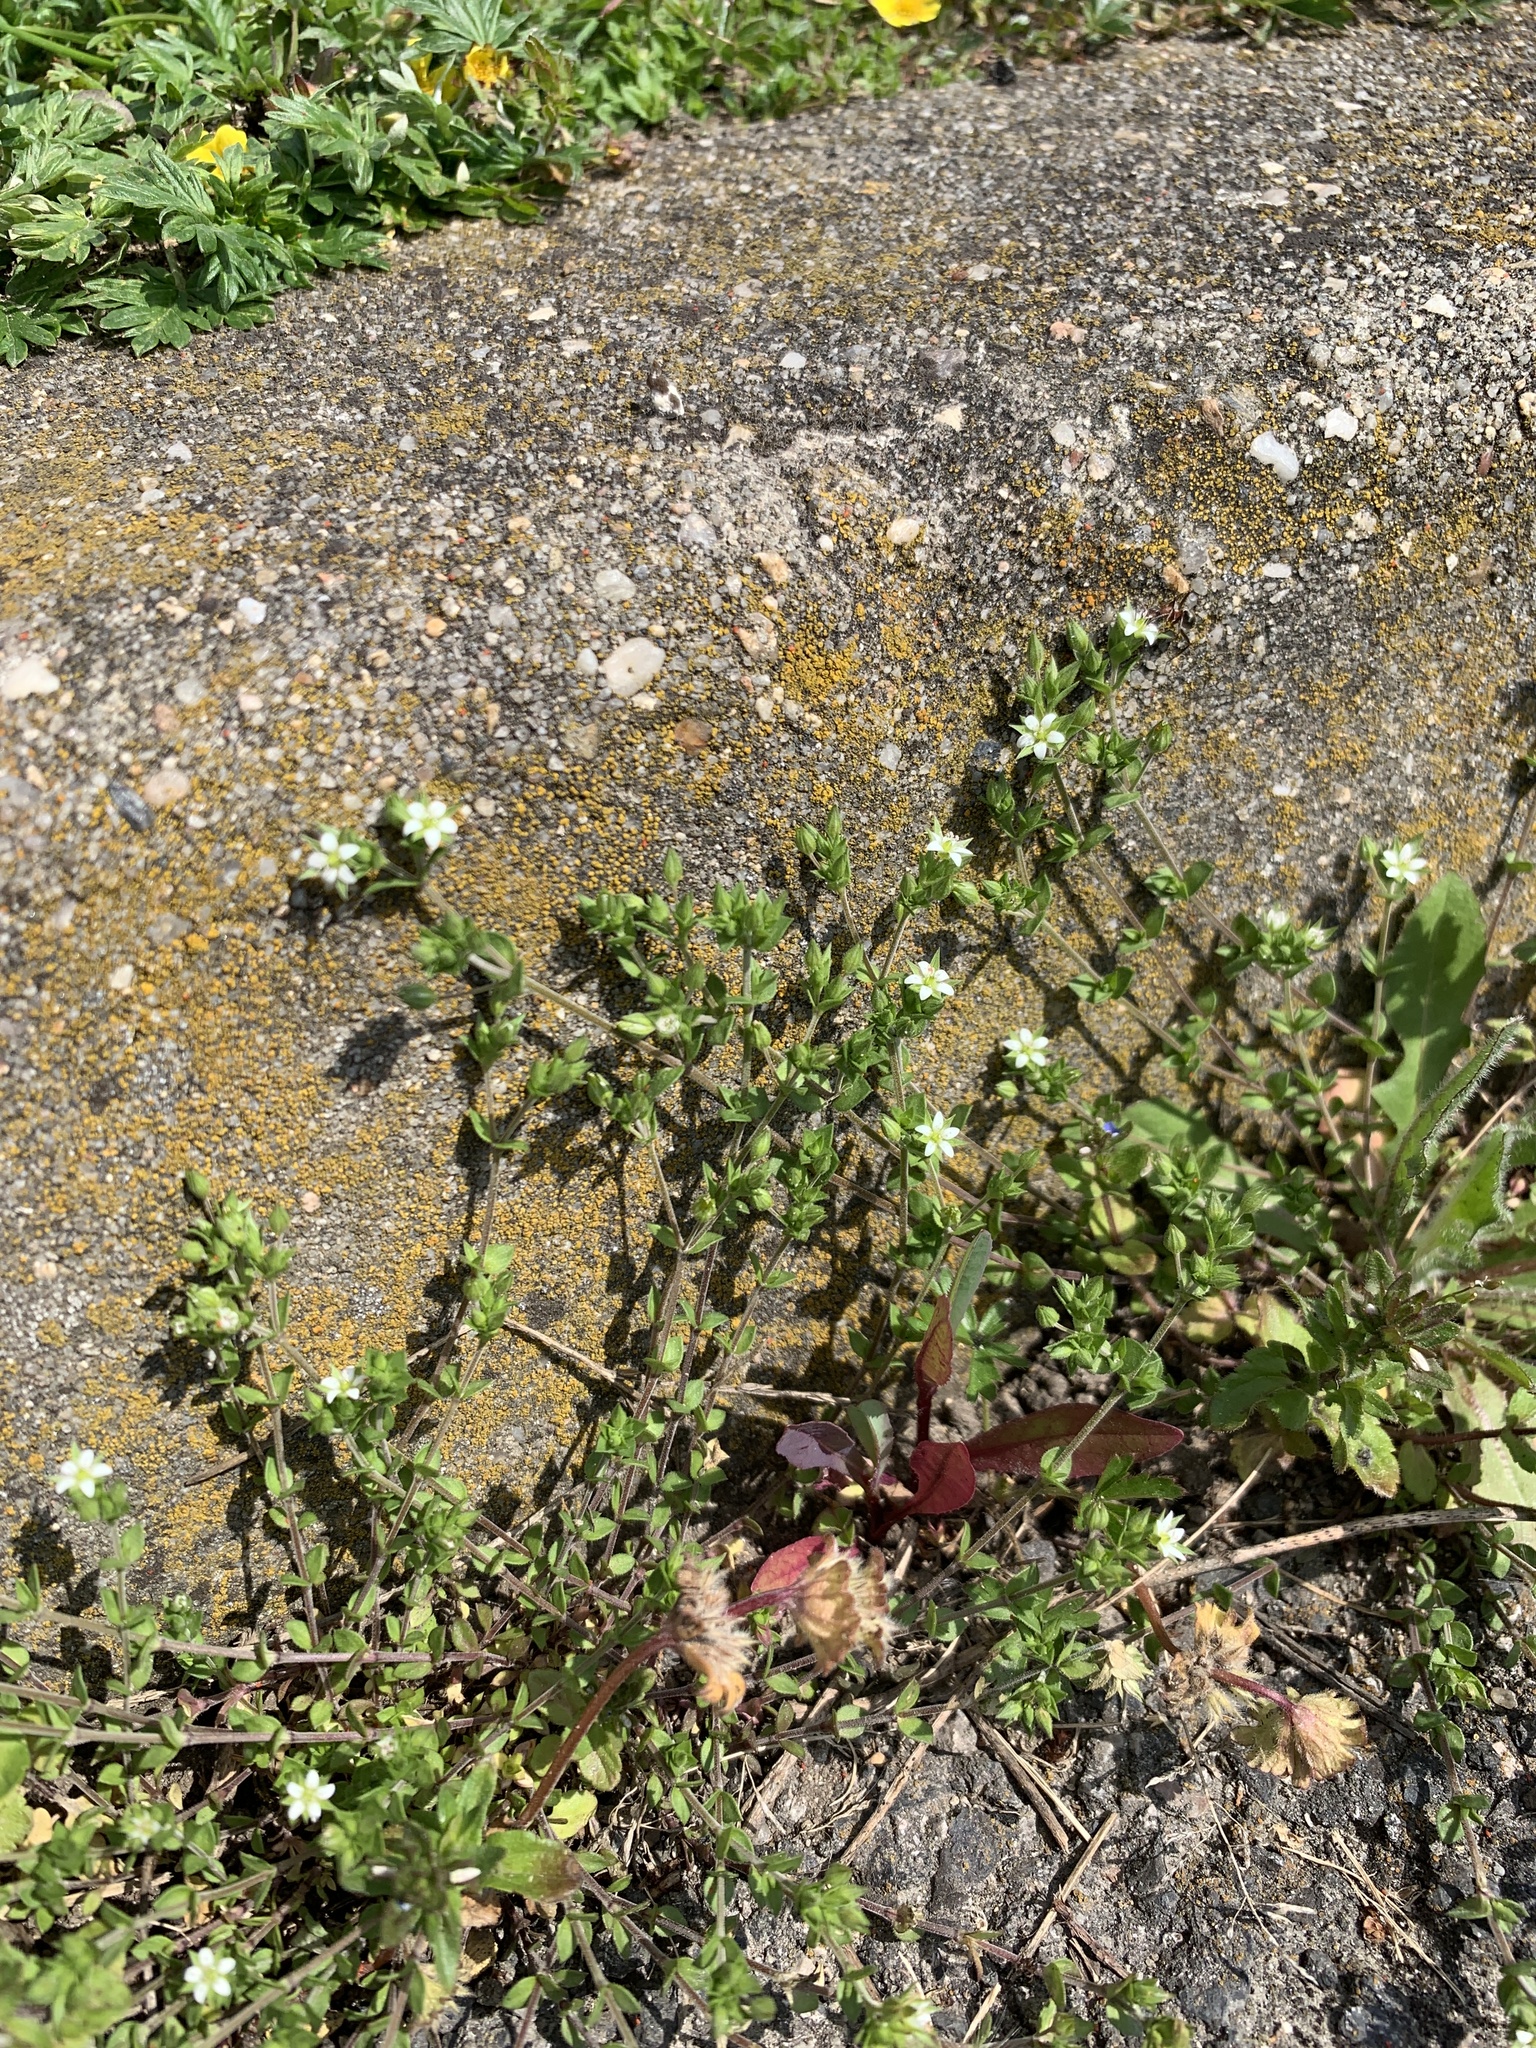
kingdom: Plantae
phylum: Tracheophyta
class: Magnoliopsida
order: Caryophyllales
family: Caryophyllaceae
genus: Arenaria
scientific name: Arenaria serpyllifolia
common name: Thyme-leaved sandwort
